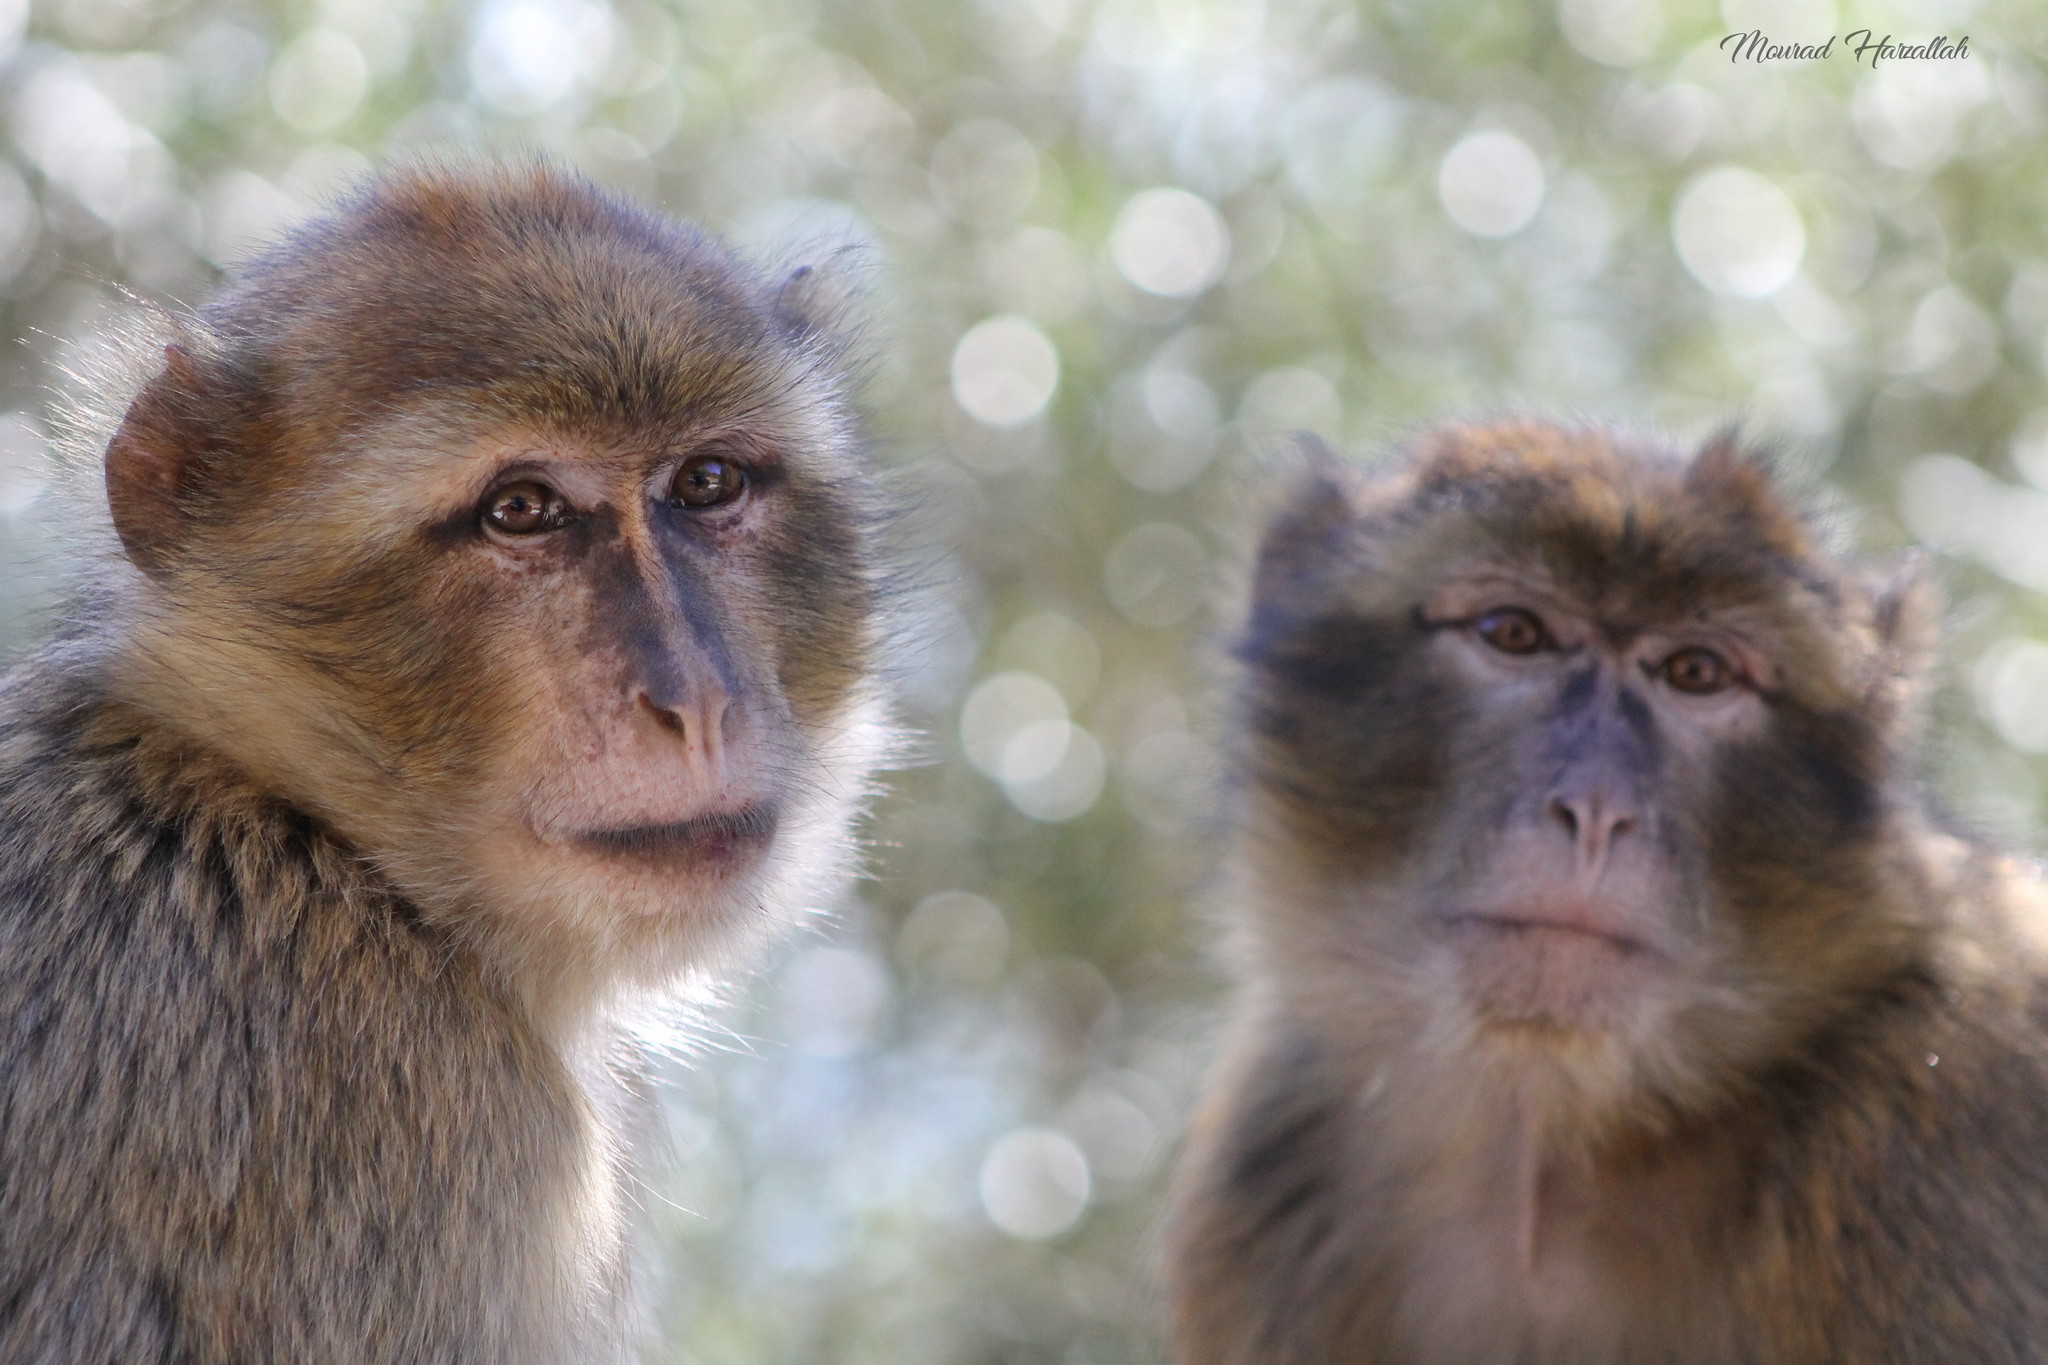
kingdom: Animalia
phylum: Chordata
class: Mammalia
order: Primates
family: Cercopithecidae
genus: Macaca
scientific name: Macaca sylvanus
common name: Barbary macaque
